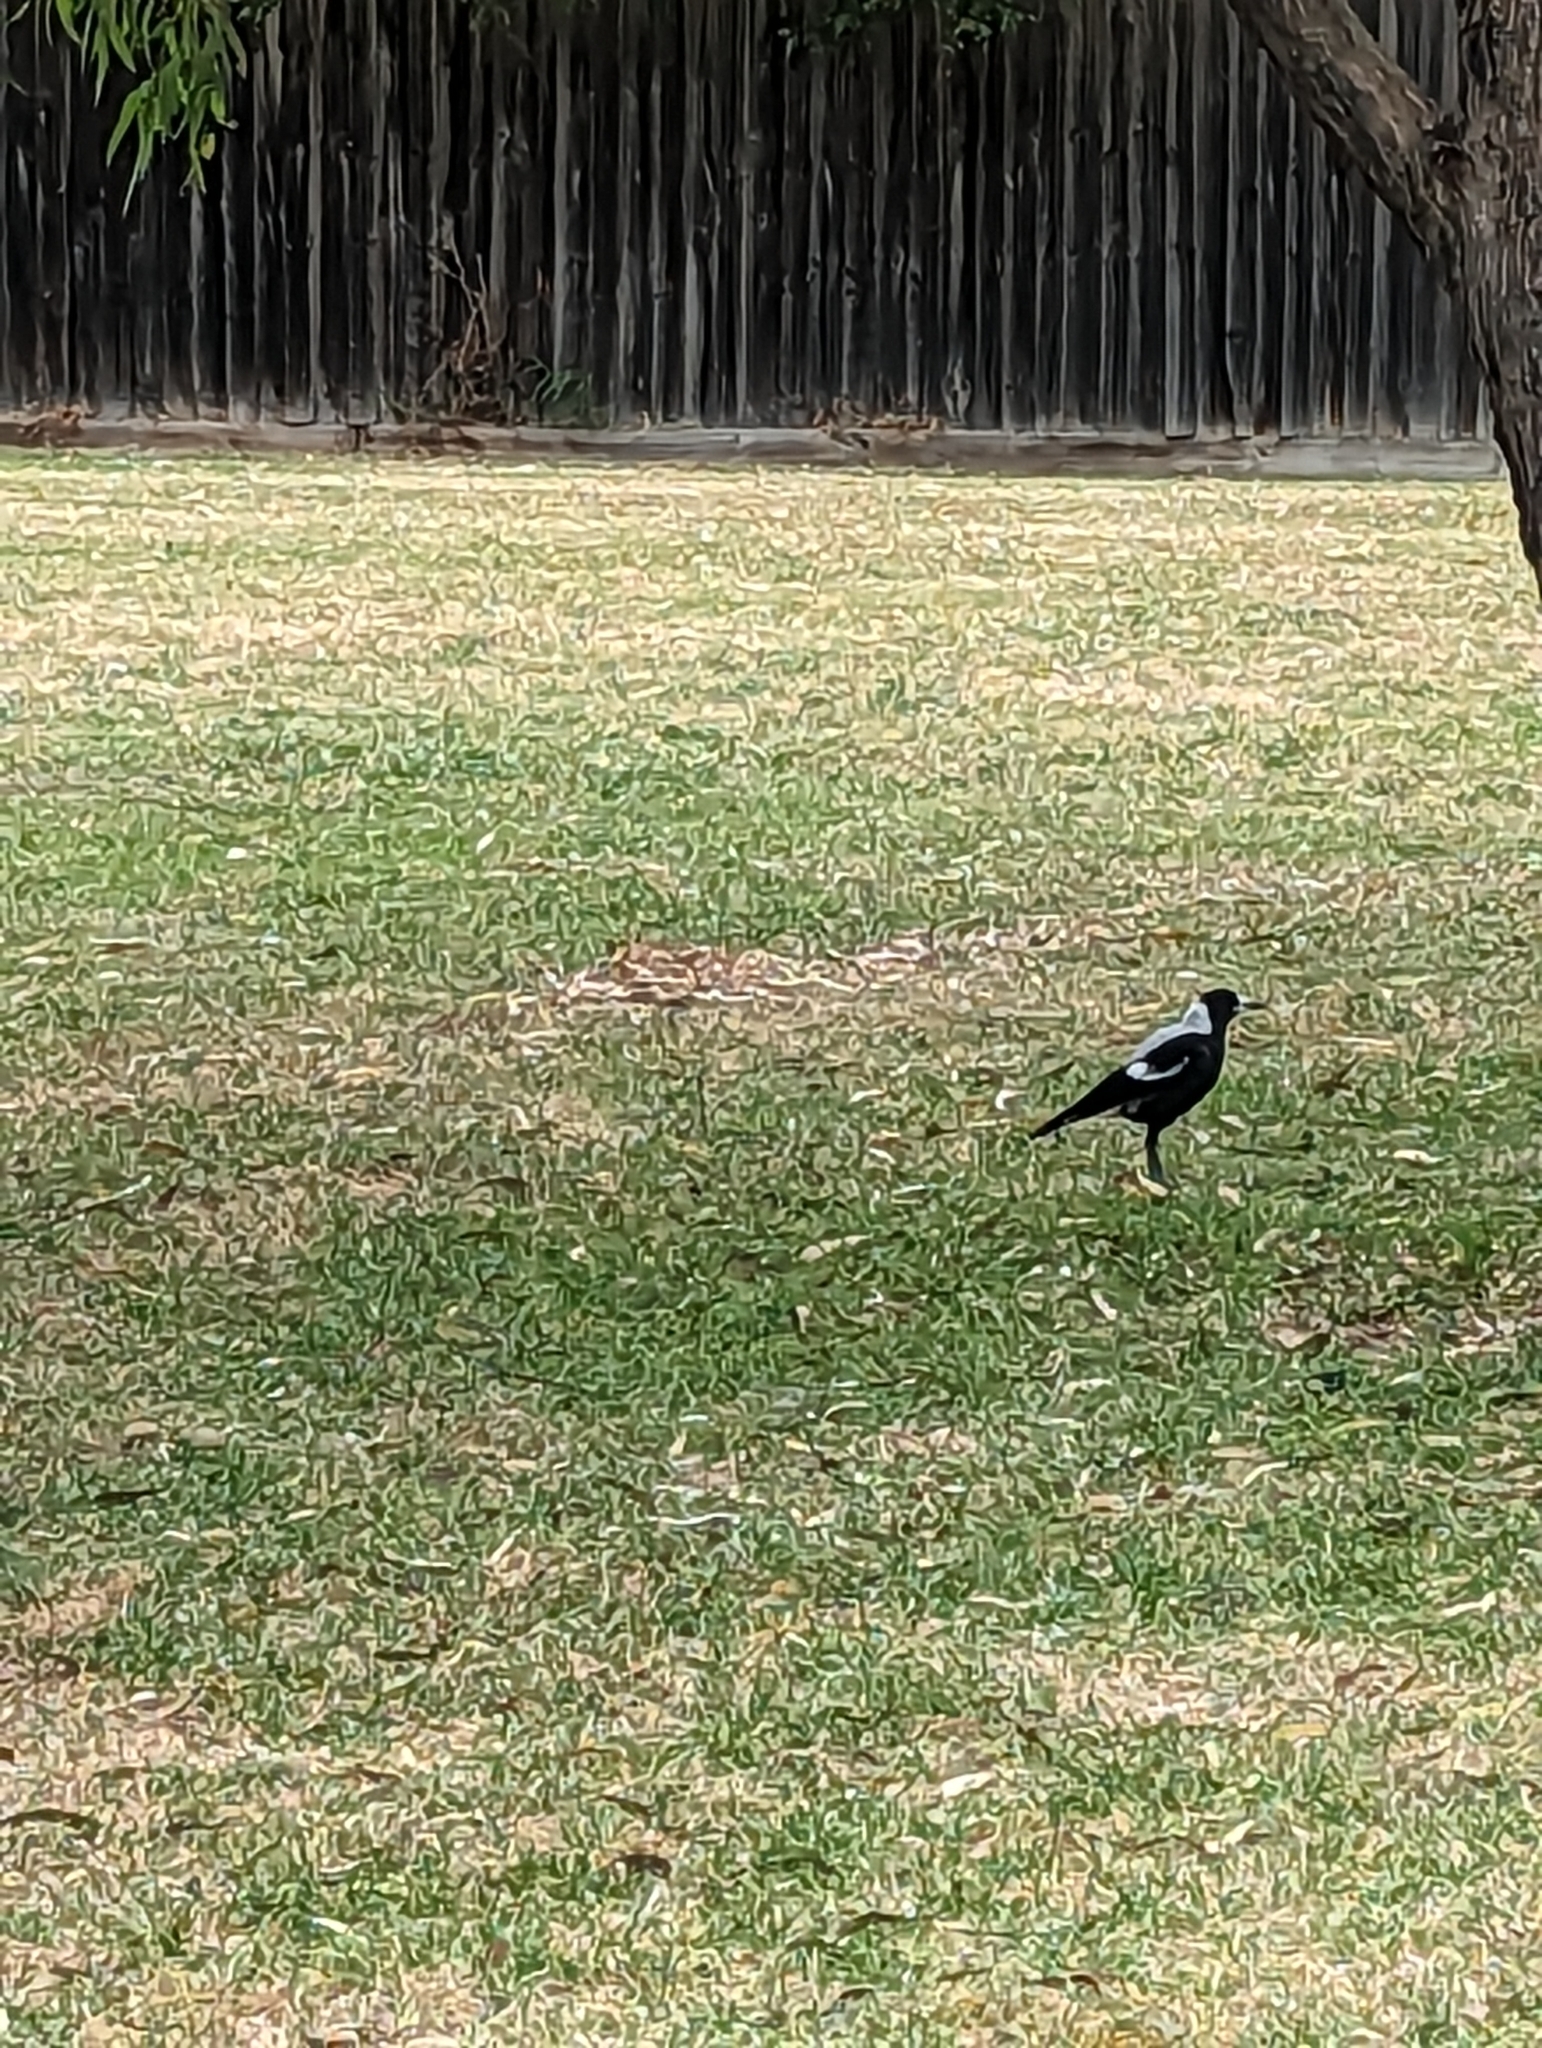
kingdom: Animalia
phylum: Chordata
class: Aves
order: Passeriformes
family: Cracticidae
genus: Gymnorhina
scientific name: Gymnorhina tibicen
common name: Australian magpie
